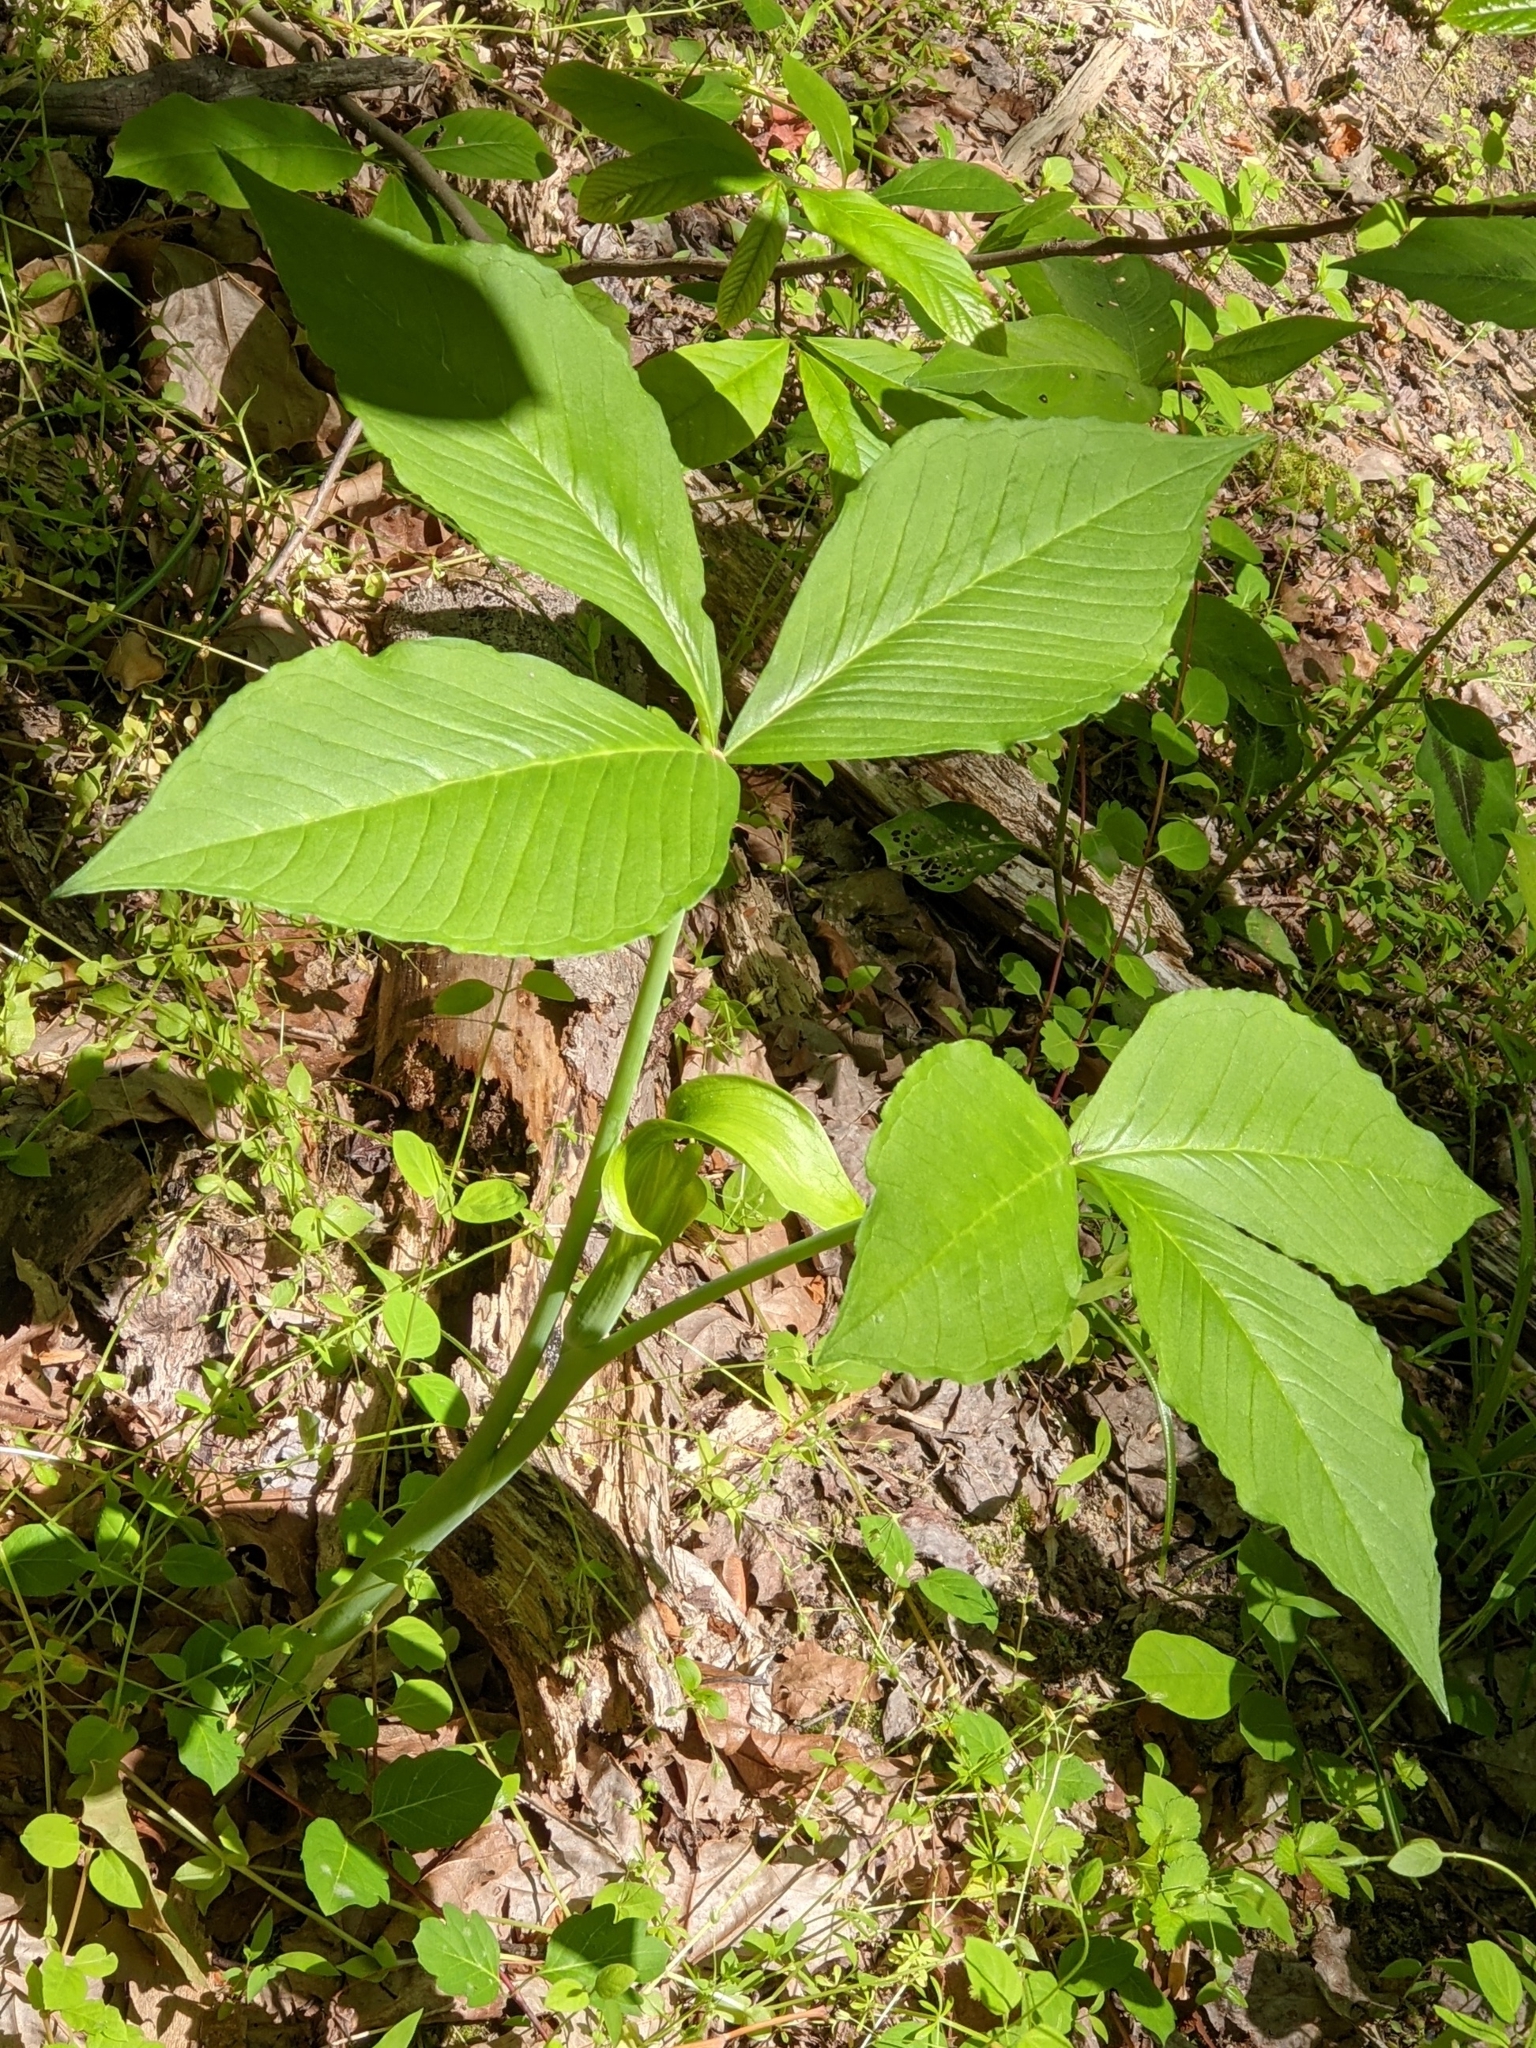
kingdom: Plantae
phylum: Tracheophyta
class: Liliopsida
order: Alismatales
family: Araceae
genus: Arisaema
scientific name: Arisaema triphyllum
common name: Jack-in-the-pulpit
